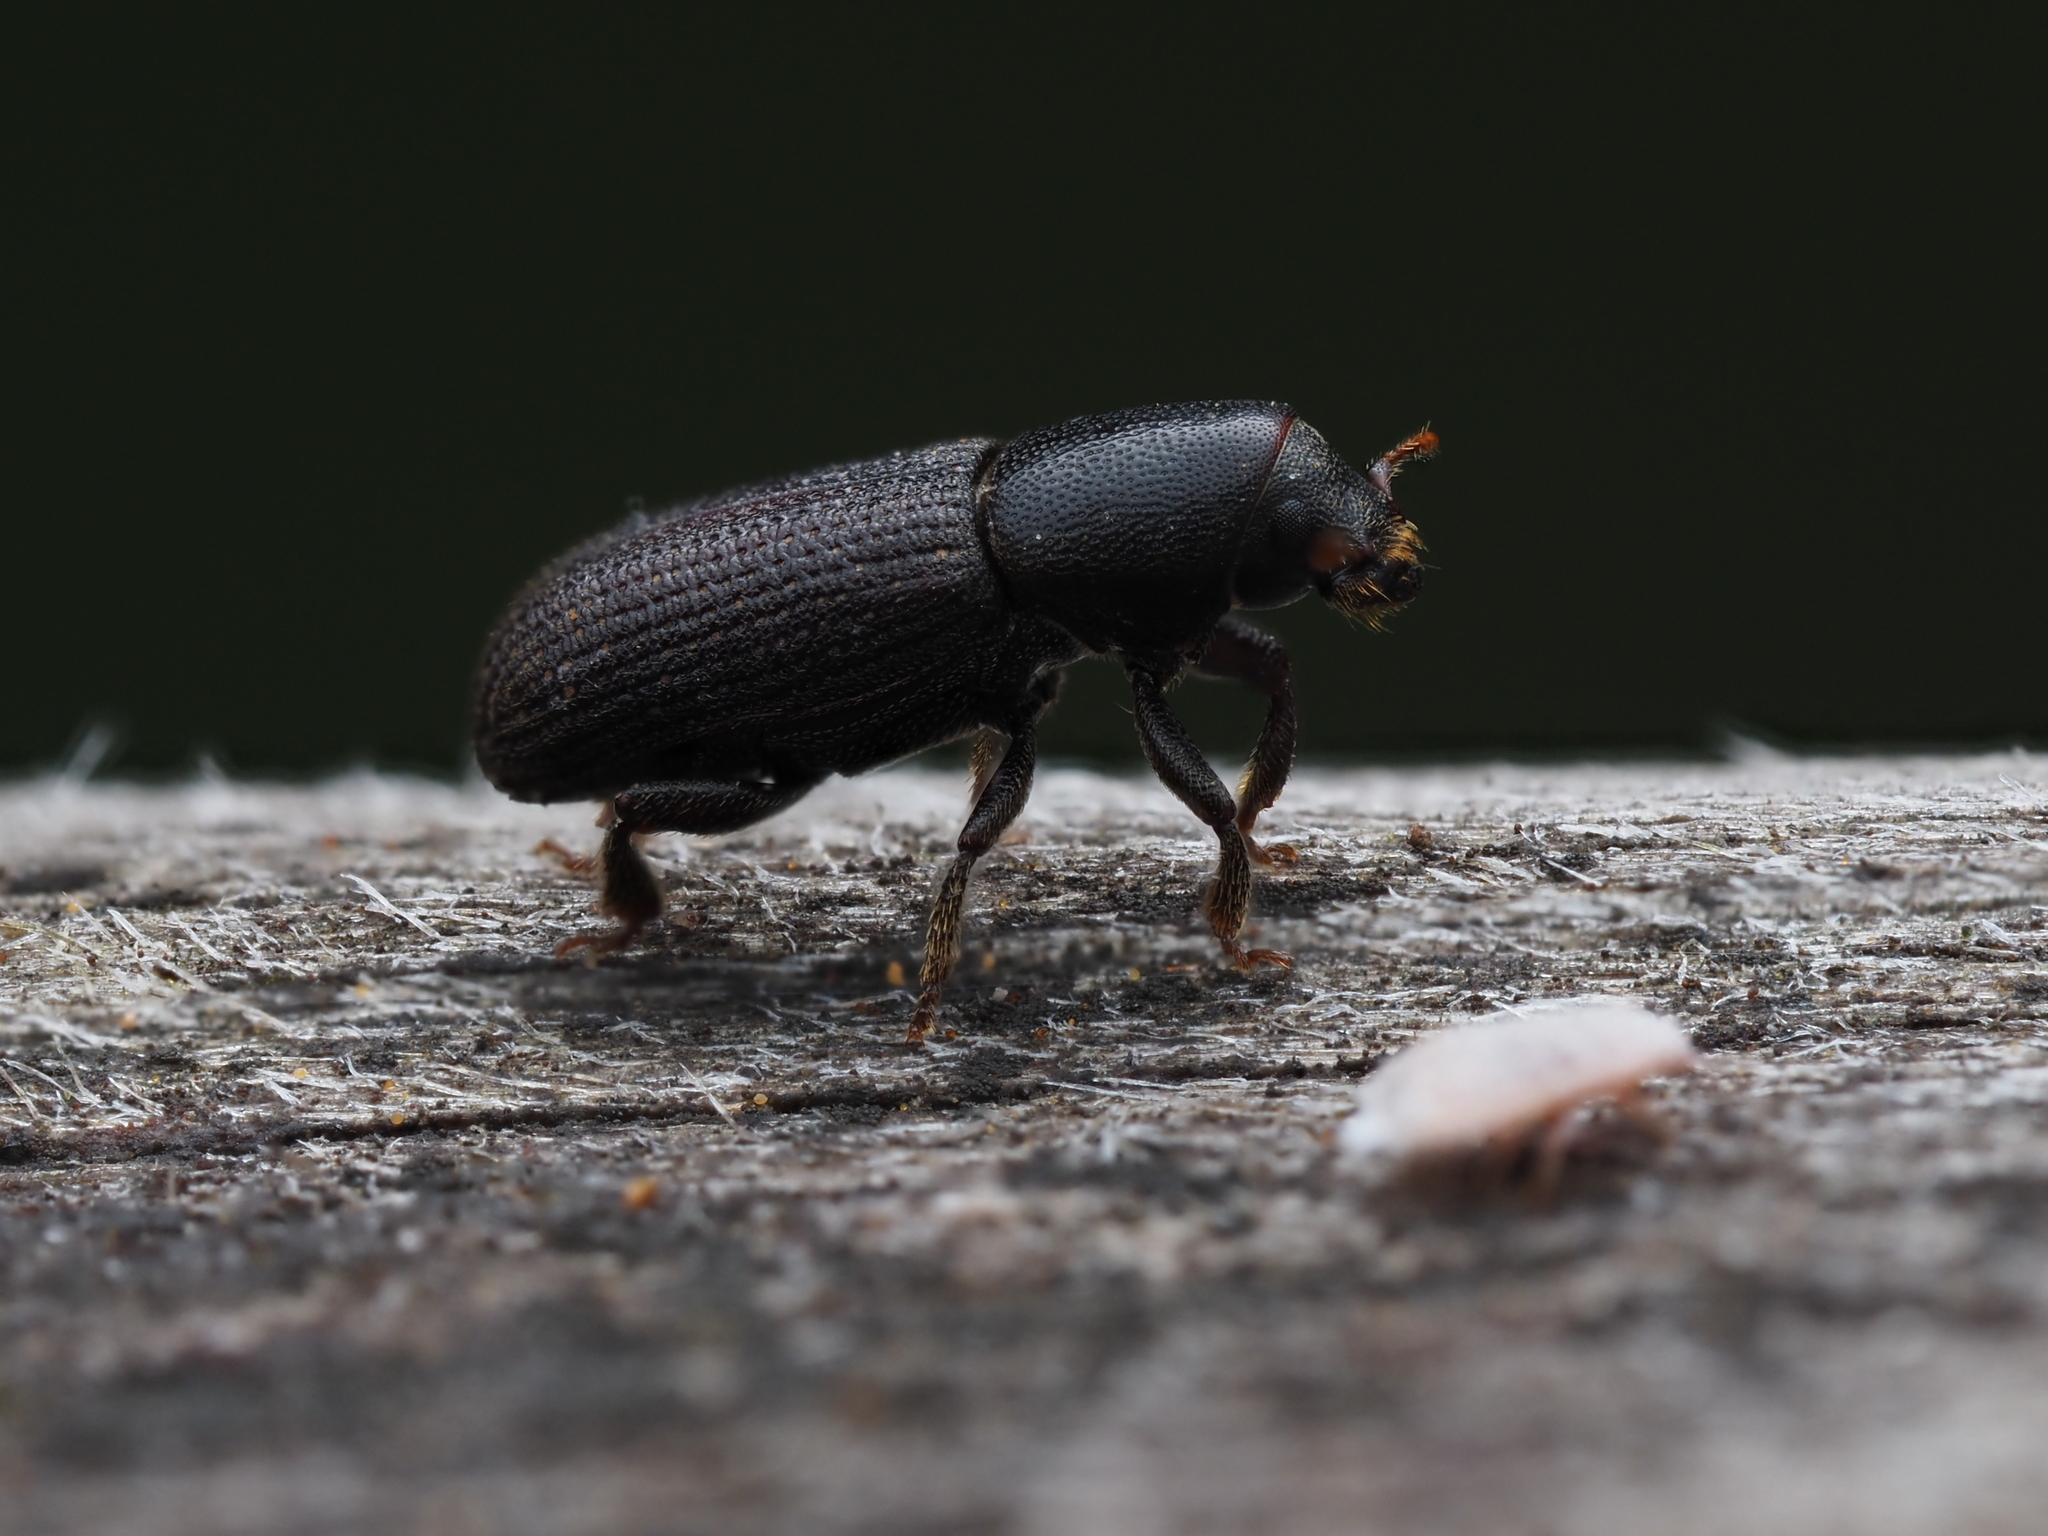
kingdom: Animalia
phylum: Arthropoda
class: Insecta
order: Coleoptera
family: Curculionidae
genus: Hylastes
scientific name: Hylastes ater
